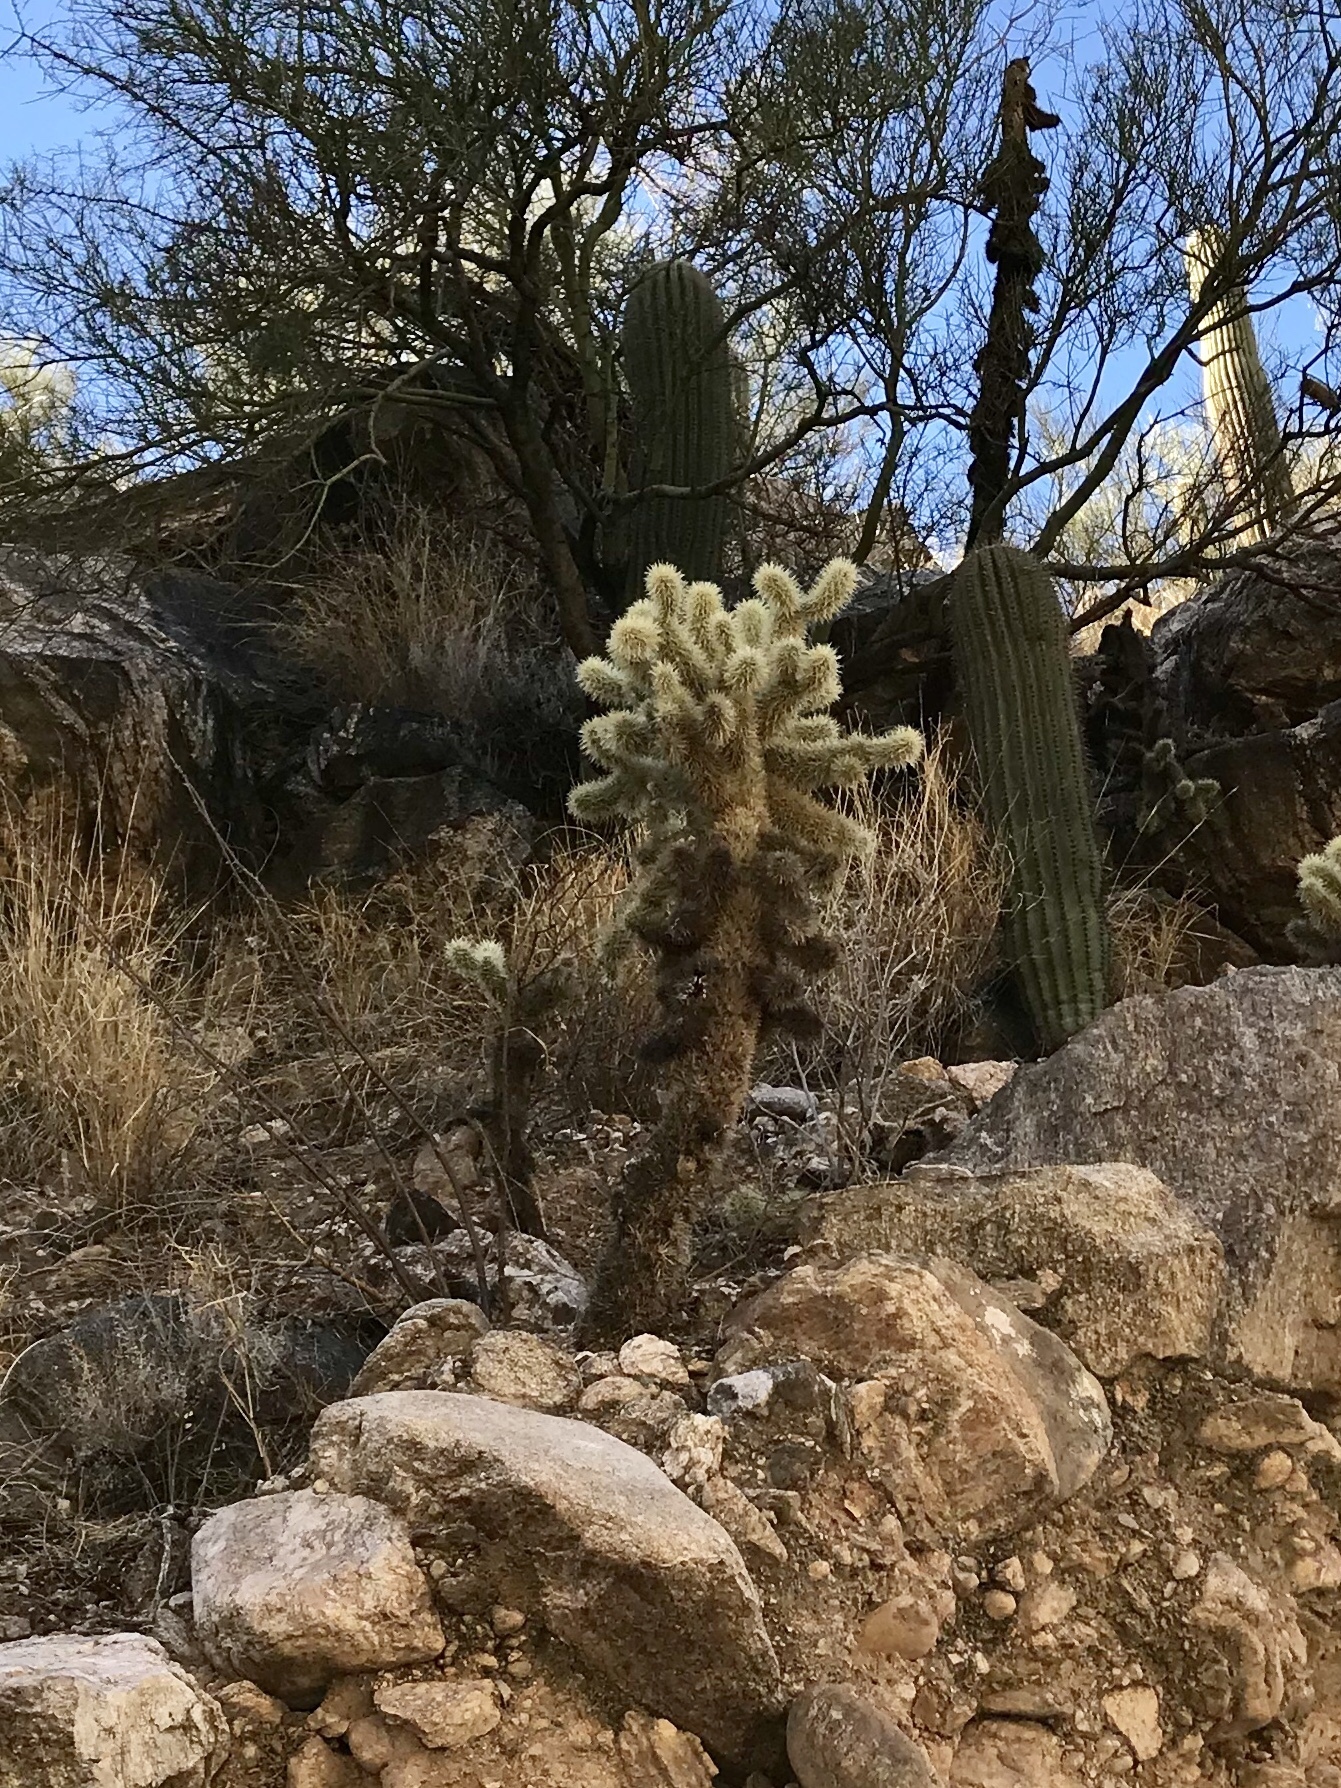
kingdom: Plantae
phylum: Tracheophyta
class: Magnoliopsida
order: Caryophyllales
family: Cactaceae
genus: Cylindropuntia
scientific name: Cylindropuntia fosbergii
